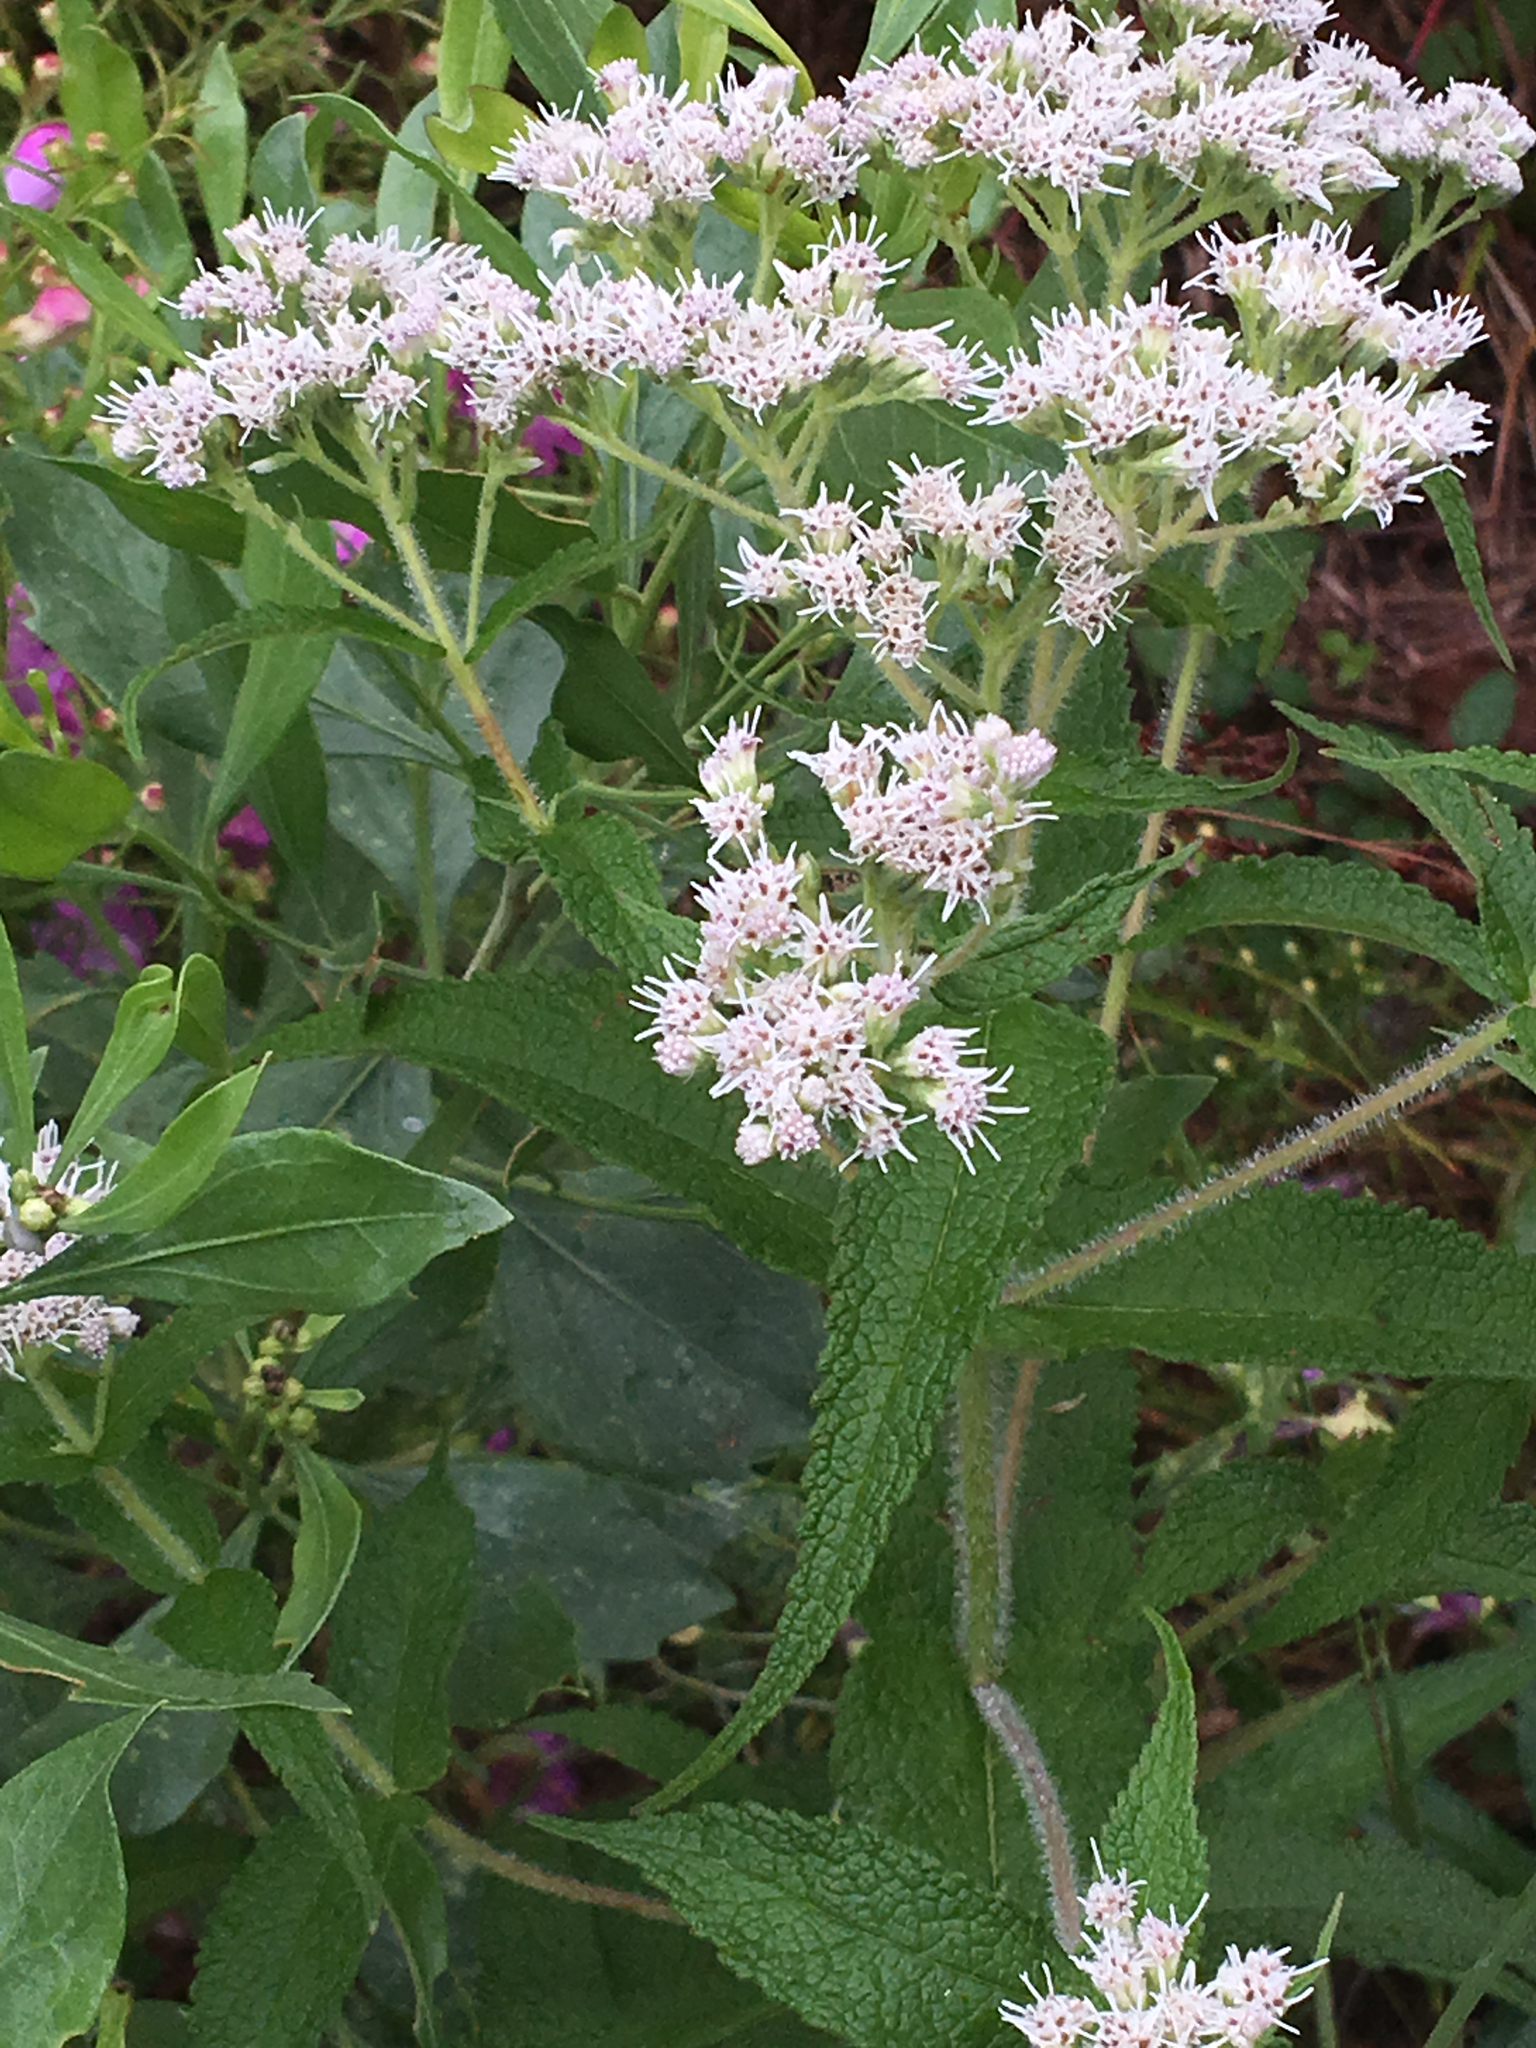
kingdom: Plantae
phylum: Tracheophyta
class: Magnoliopsida
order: Asterales
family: Asteraceae
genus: Eupatorium
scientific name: Eupatorium perfoliatum
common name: Boneset
